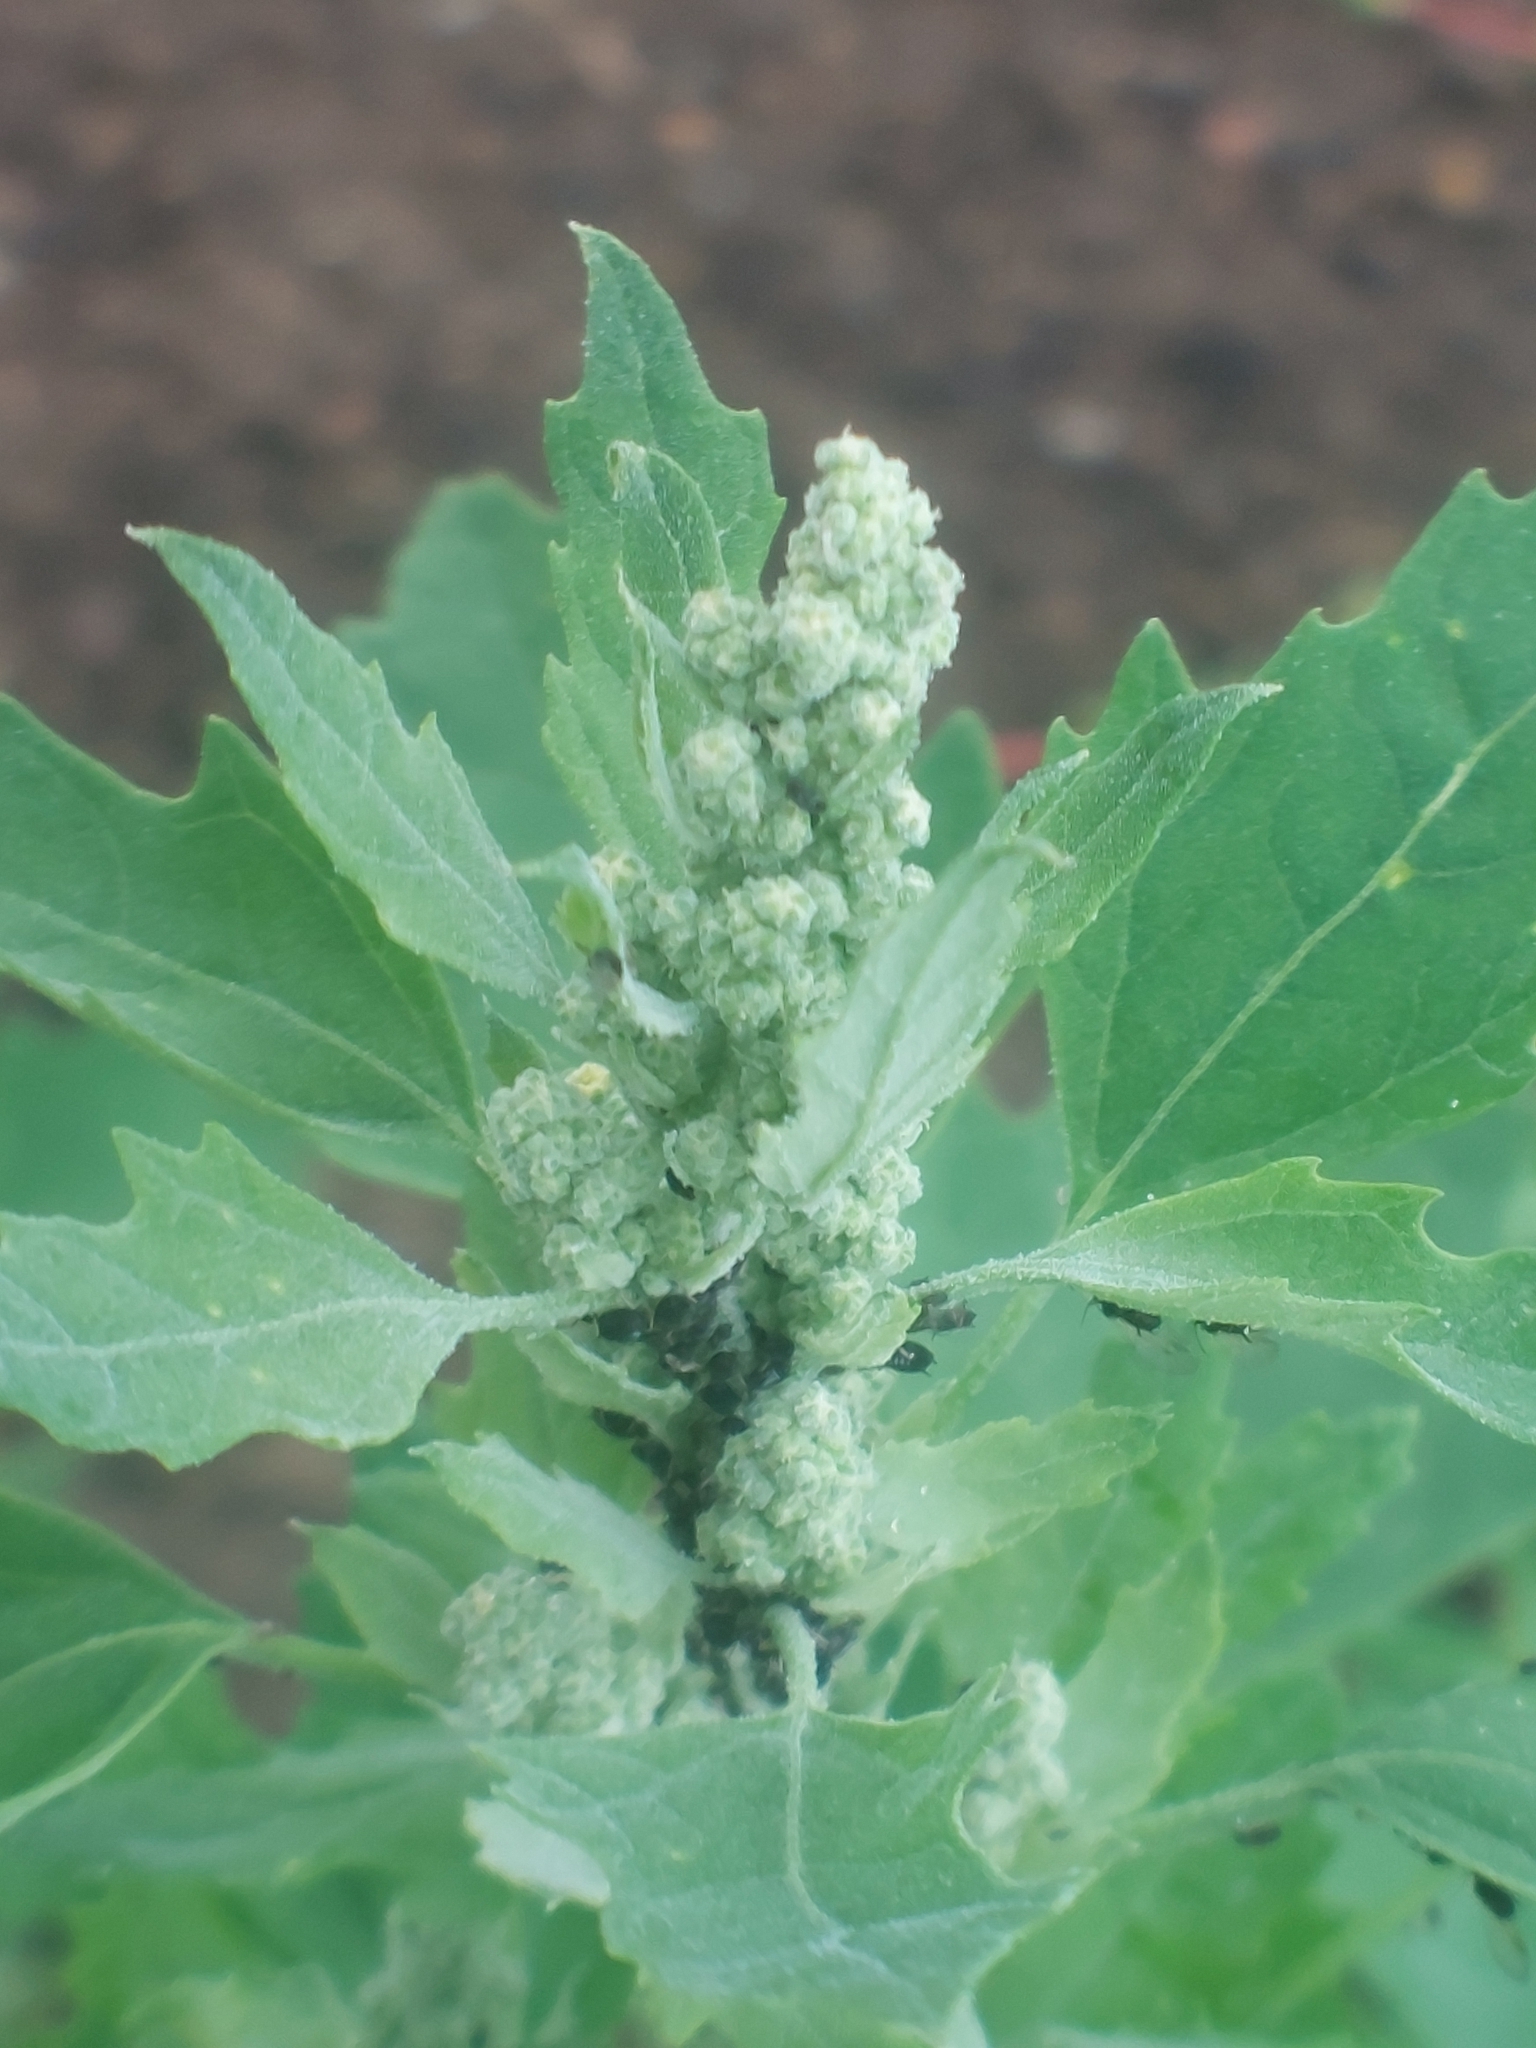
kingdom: Plantae
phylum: Tracheophyta
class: Magnoliopsida
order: Caryophyllales
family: Amaranthaceae
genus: Chenopodium
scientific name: Chenopodium album
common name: Fat-hen
